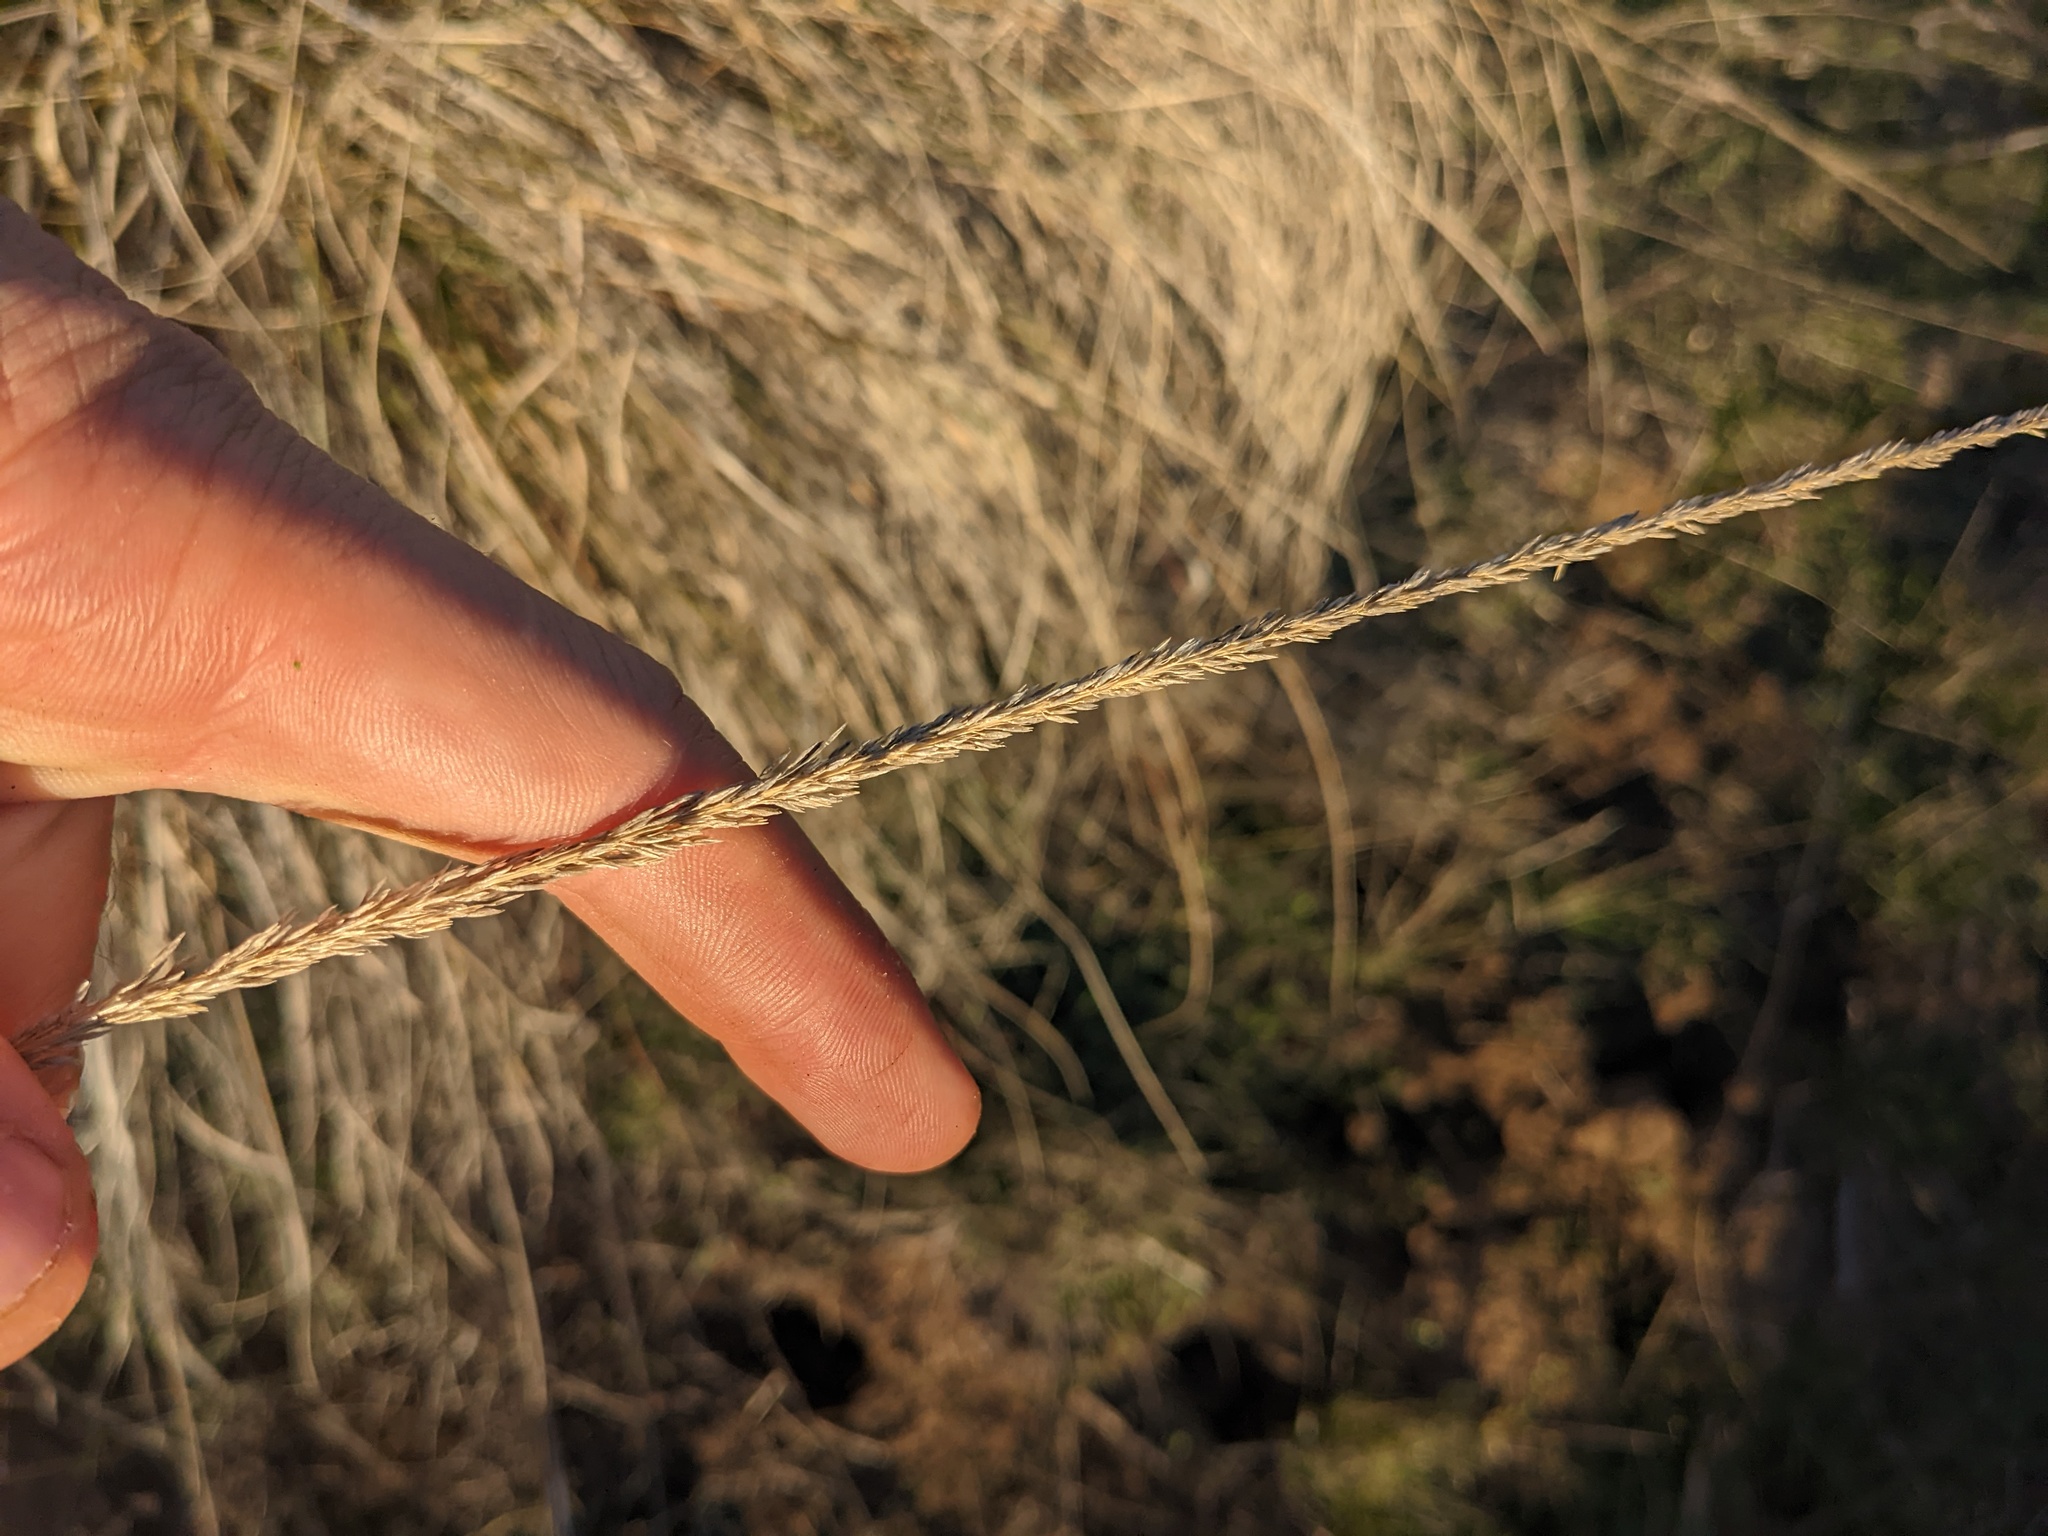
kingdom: Plantae
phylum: Tracheophyta
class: Liliopsida
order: Poales
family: Poaceae
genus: Muhlenbergia
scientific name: Muhlenbergia rigens
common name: Deer grass
